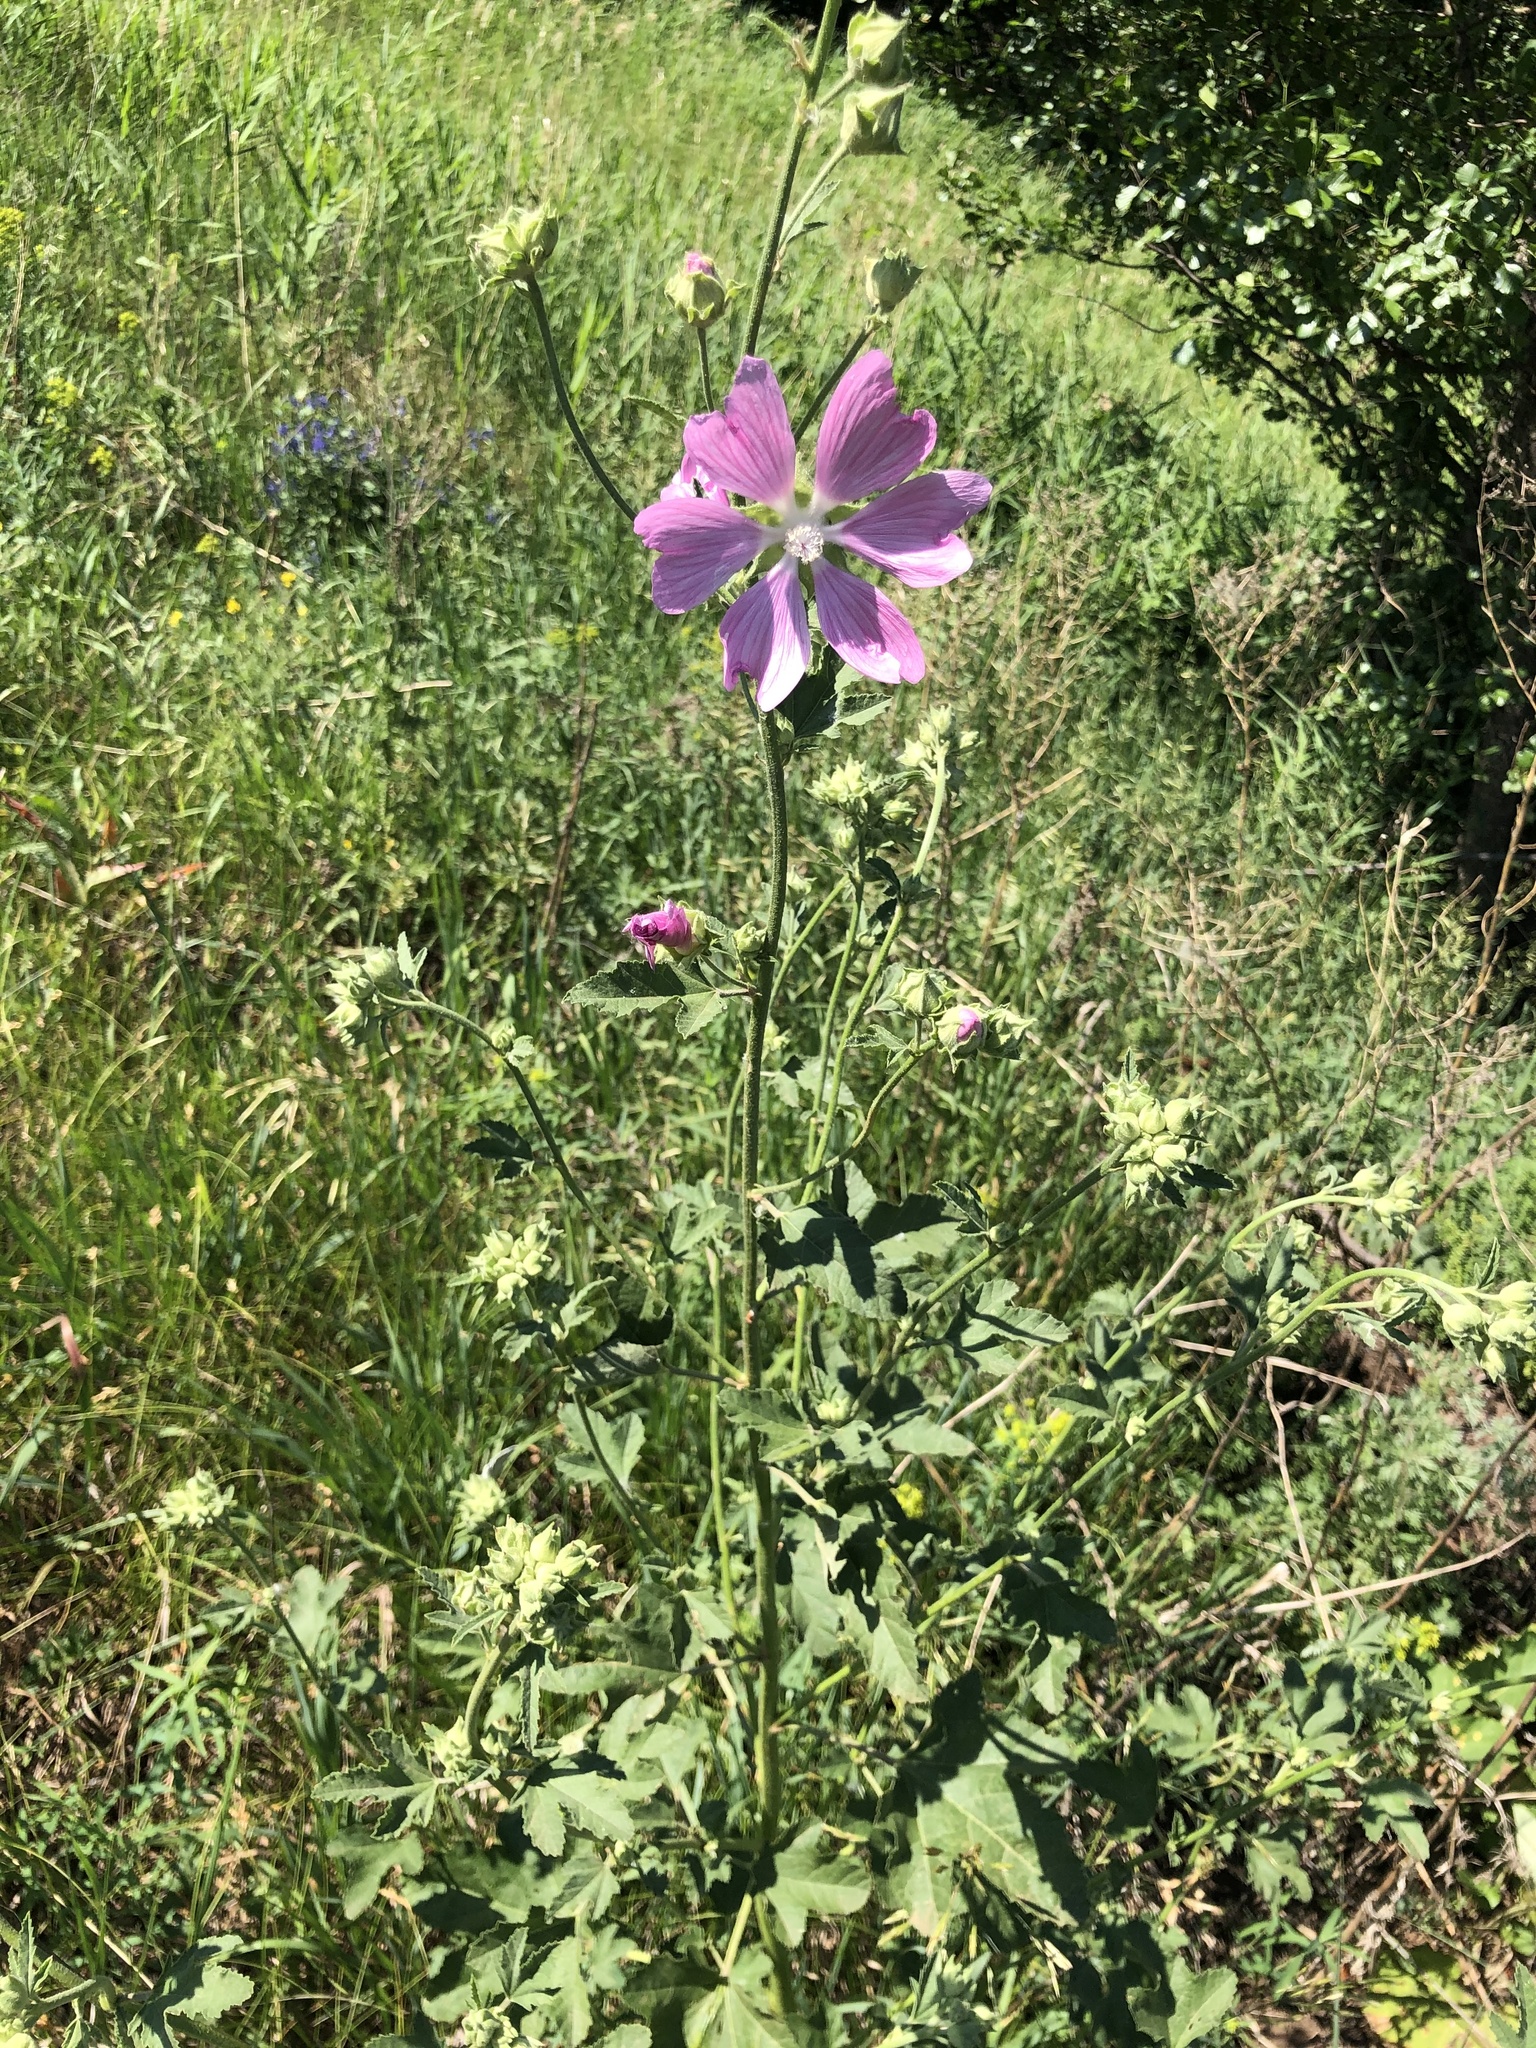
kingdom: Plantae
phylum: Tracheophyta
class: Magnoliopsida
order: Malvales
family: Malvaceae
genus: Malva
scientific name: Malva thuringiaca
